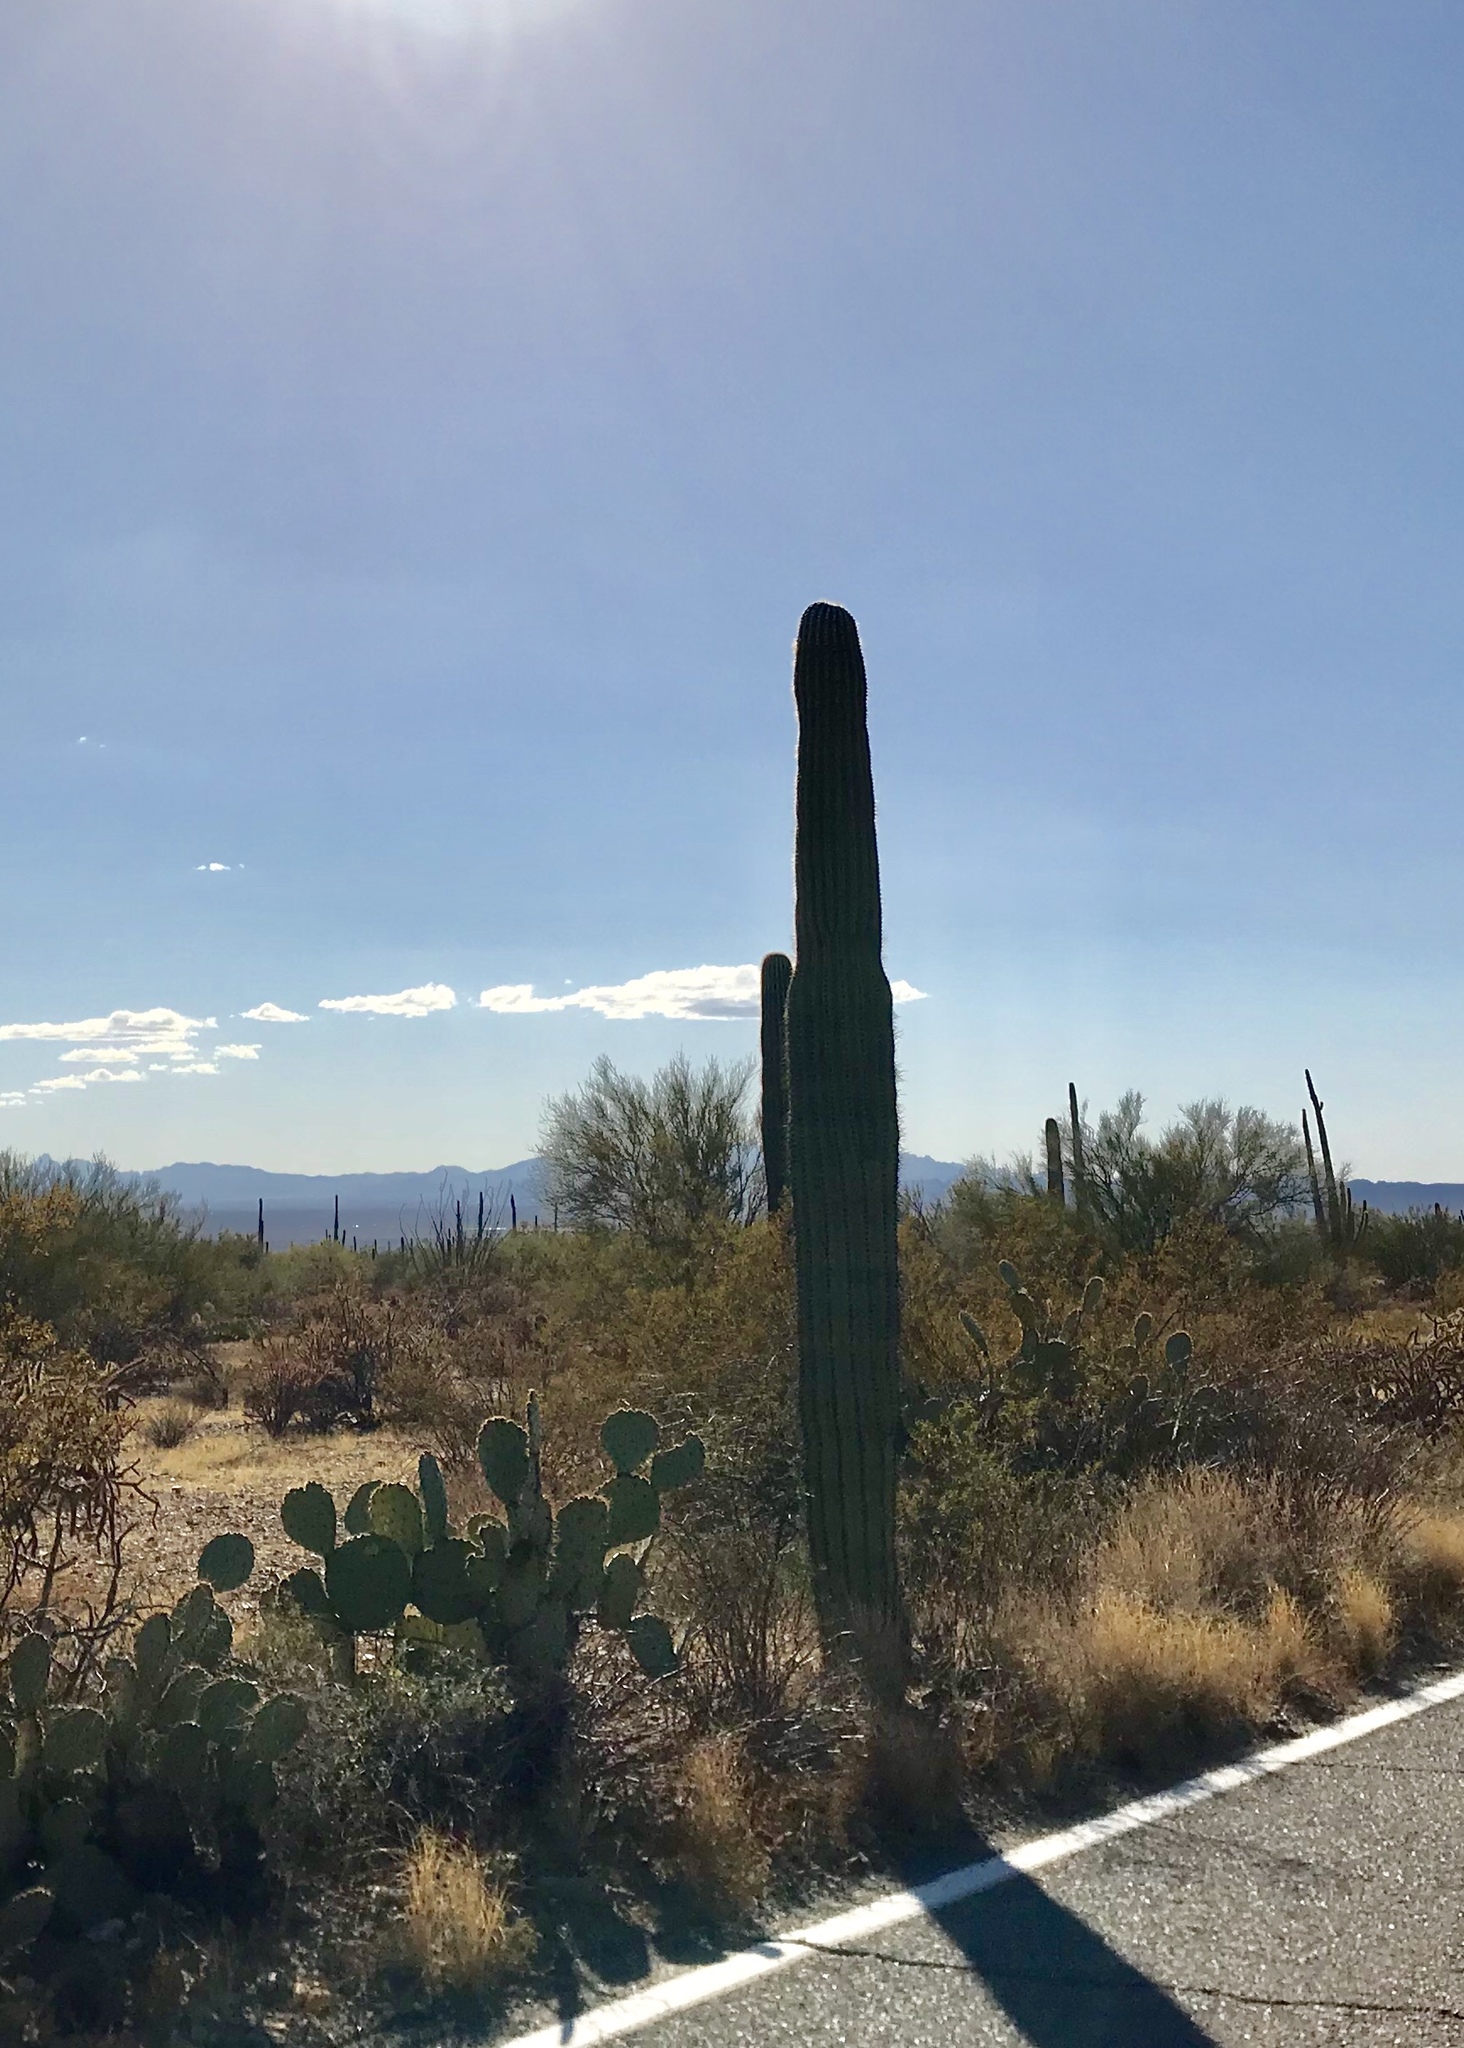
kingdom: Plantae
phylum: Tracheophyta
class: Magnoliopsida
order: Caryophyllales
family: Cactaceae
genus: Carnegiea
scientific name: Carnegiea gigantea
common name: Saguaro
